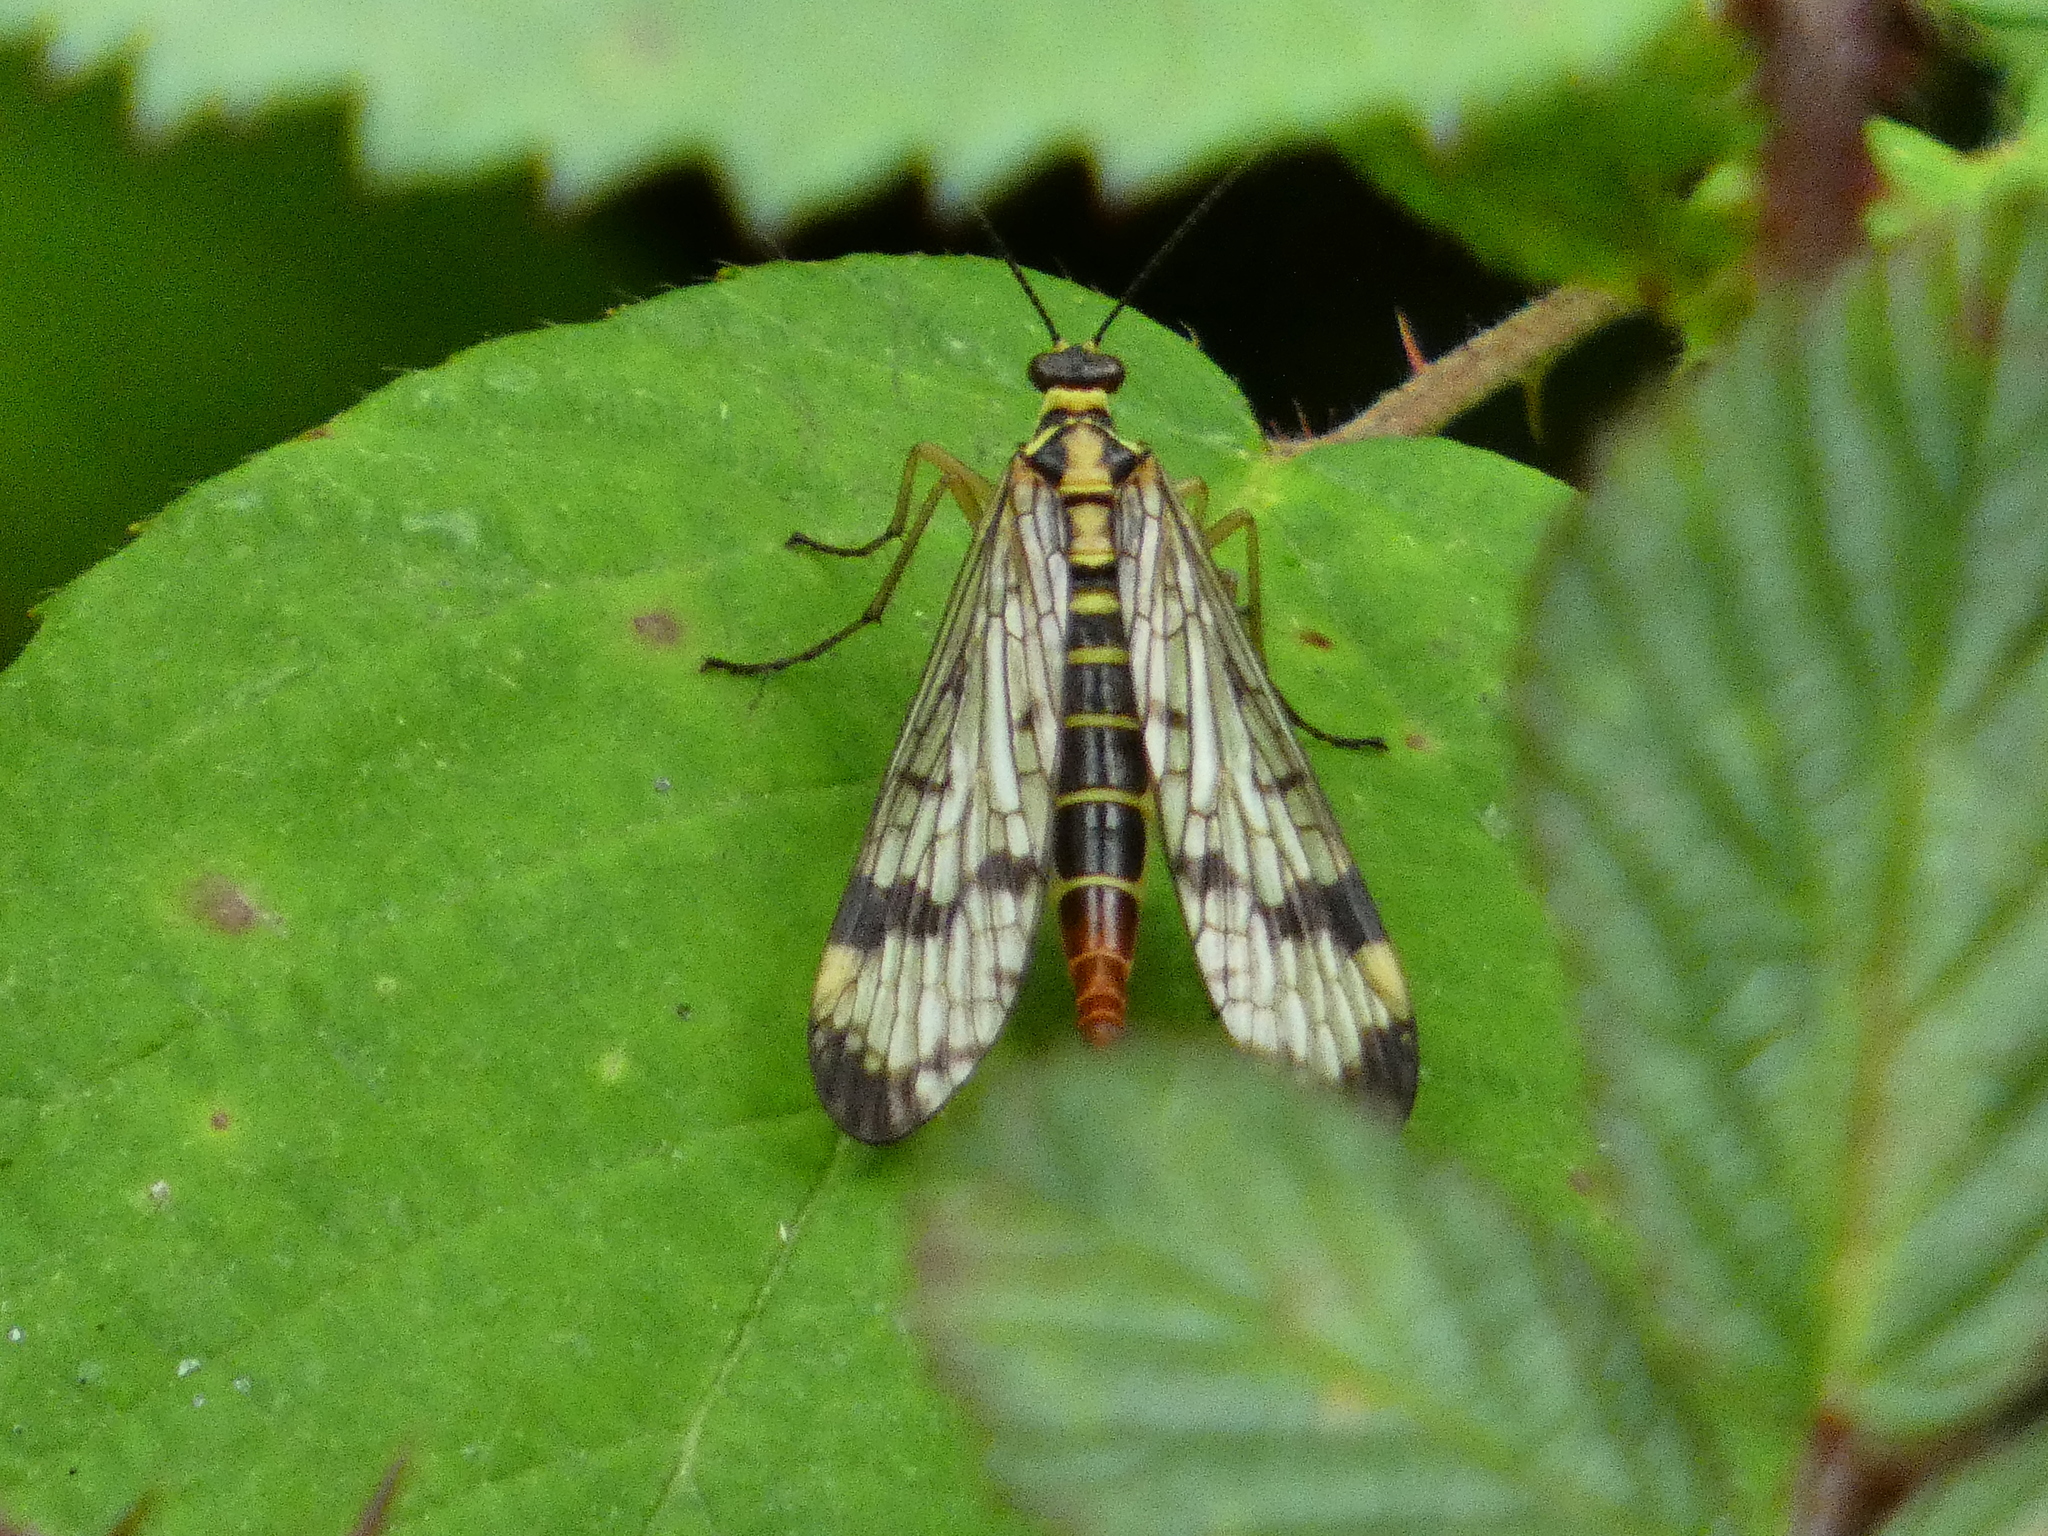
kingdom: Animalia
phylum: Arthropoda
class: Insecta
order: Mecoptera
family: Panorpidae
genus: Panorpa
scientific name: Panorpa communis
